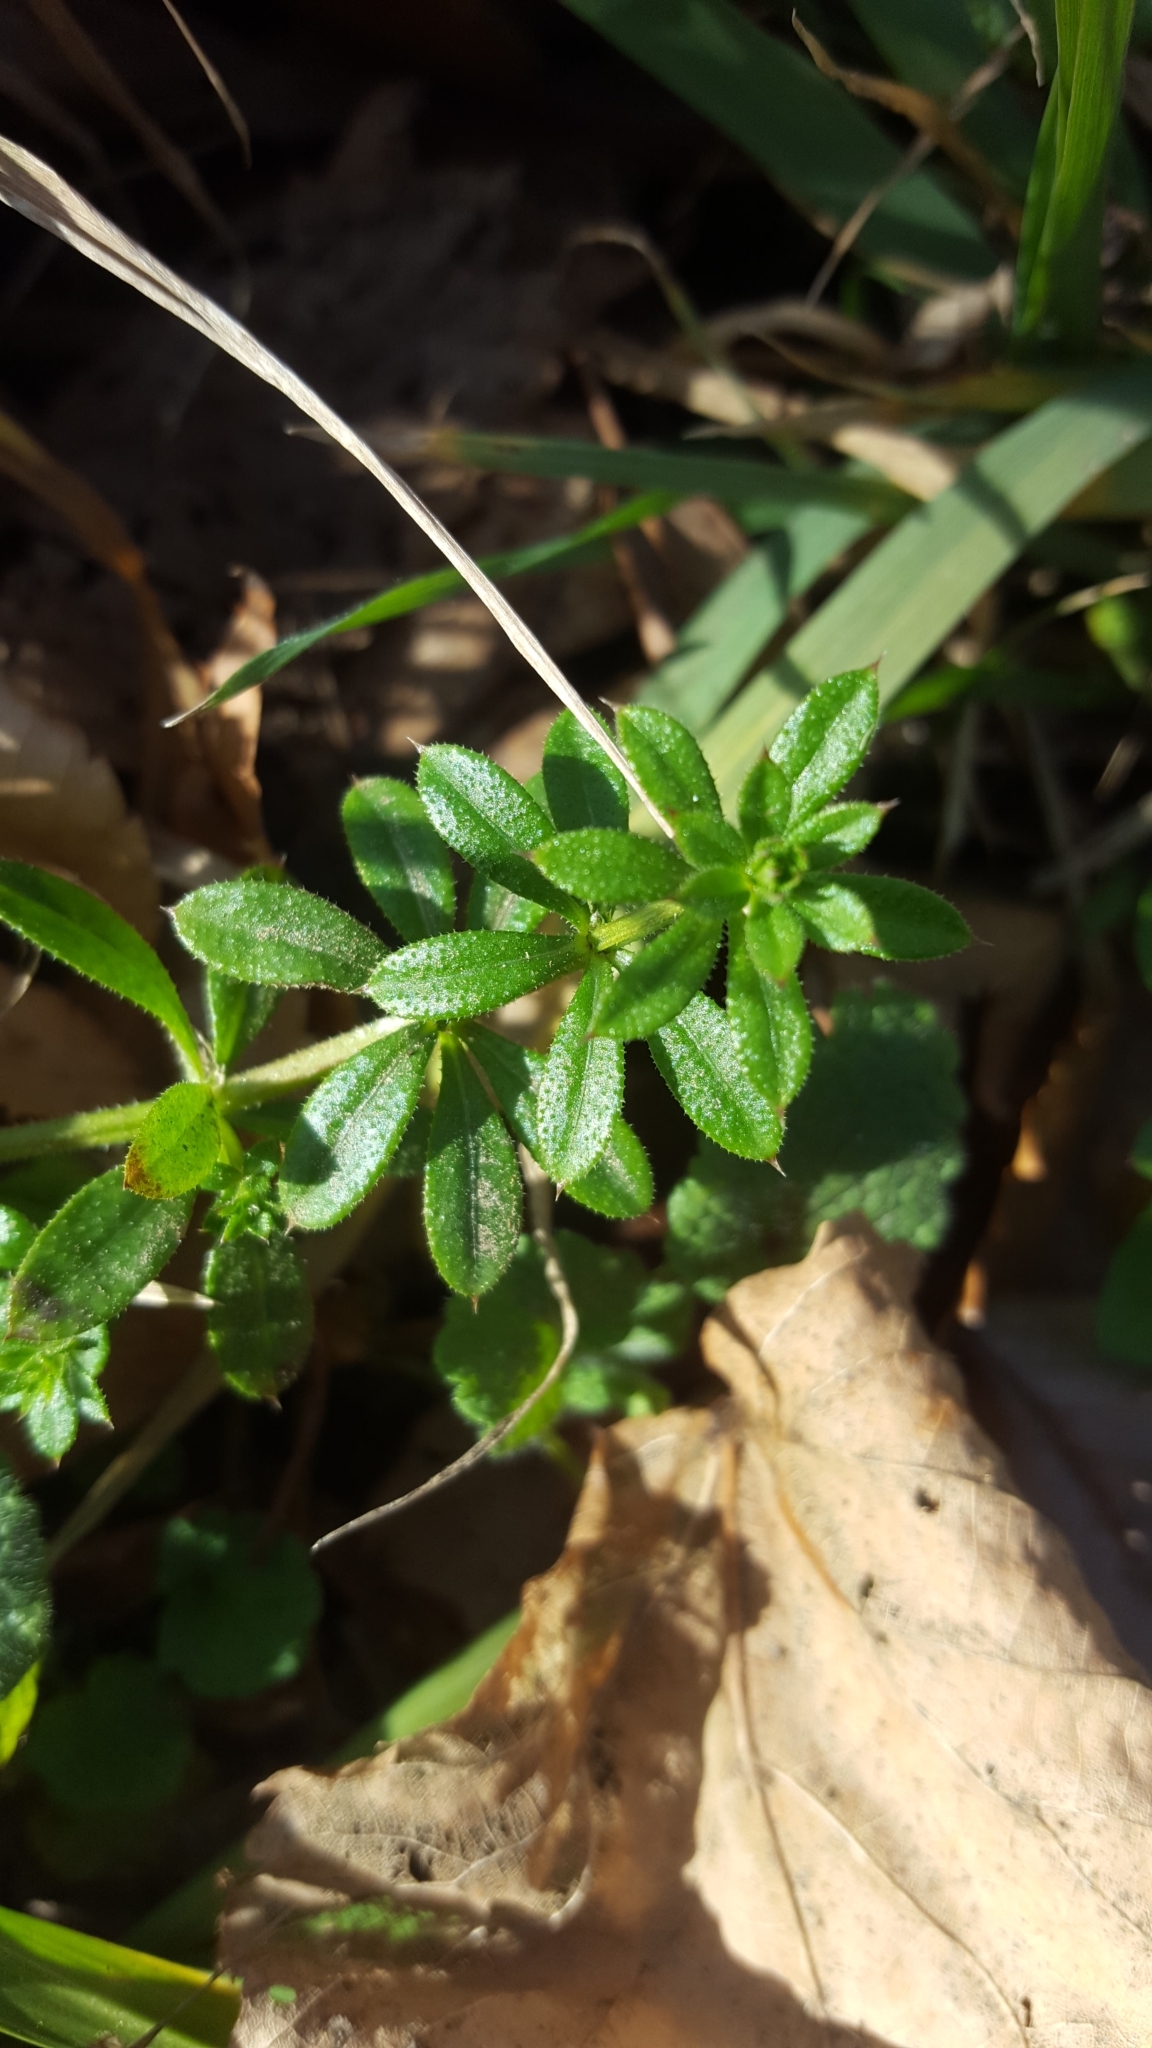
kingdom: Plantae
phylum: Tracheophyta
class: Magnoliopsida
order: Gentianales
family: Rubiaceae
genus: Galium
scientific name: Galium aparine
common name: Cleavers
